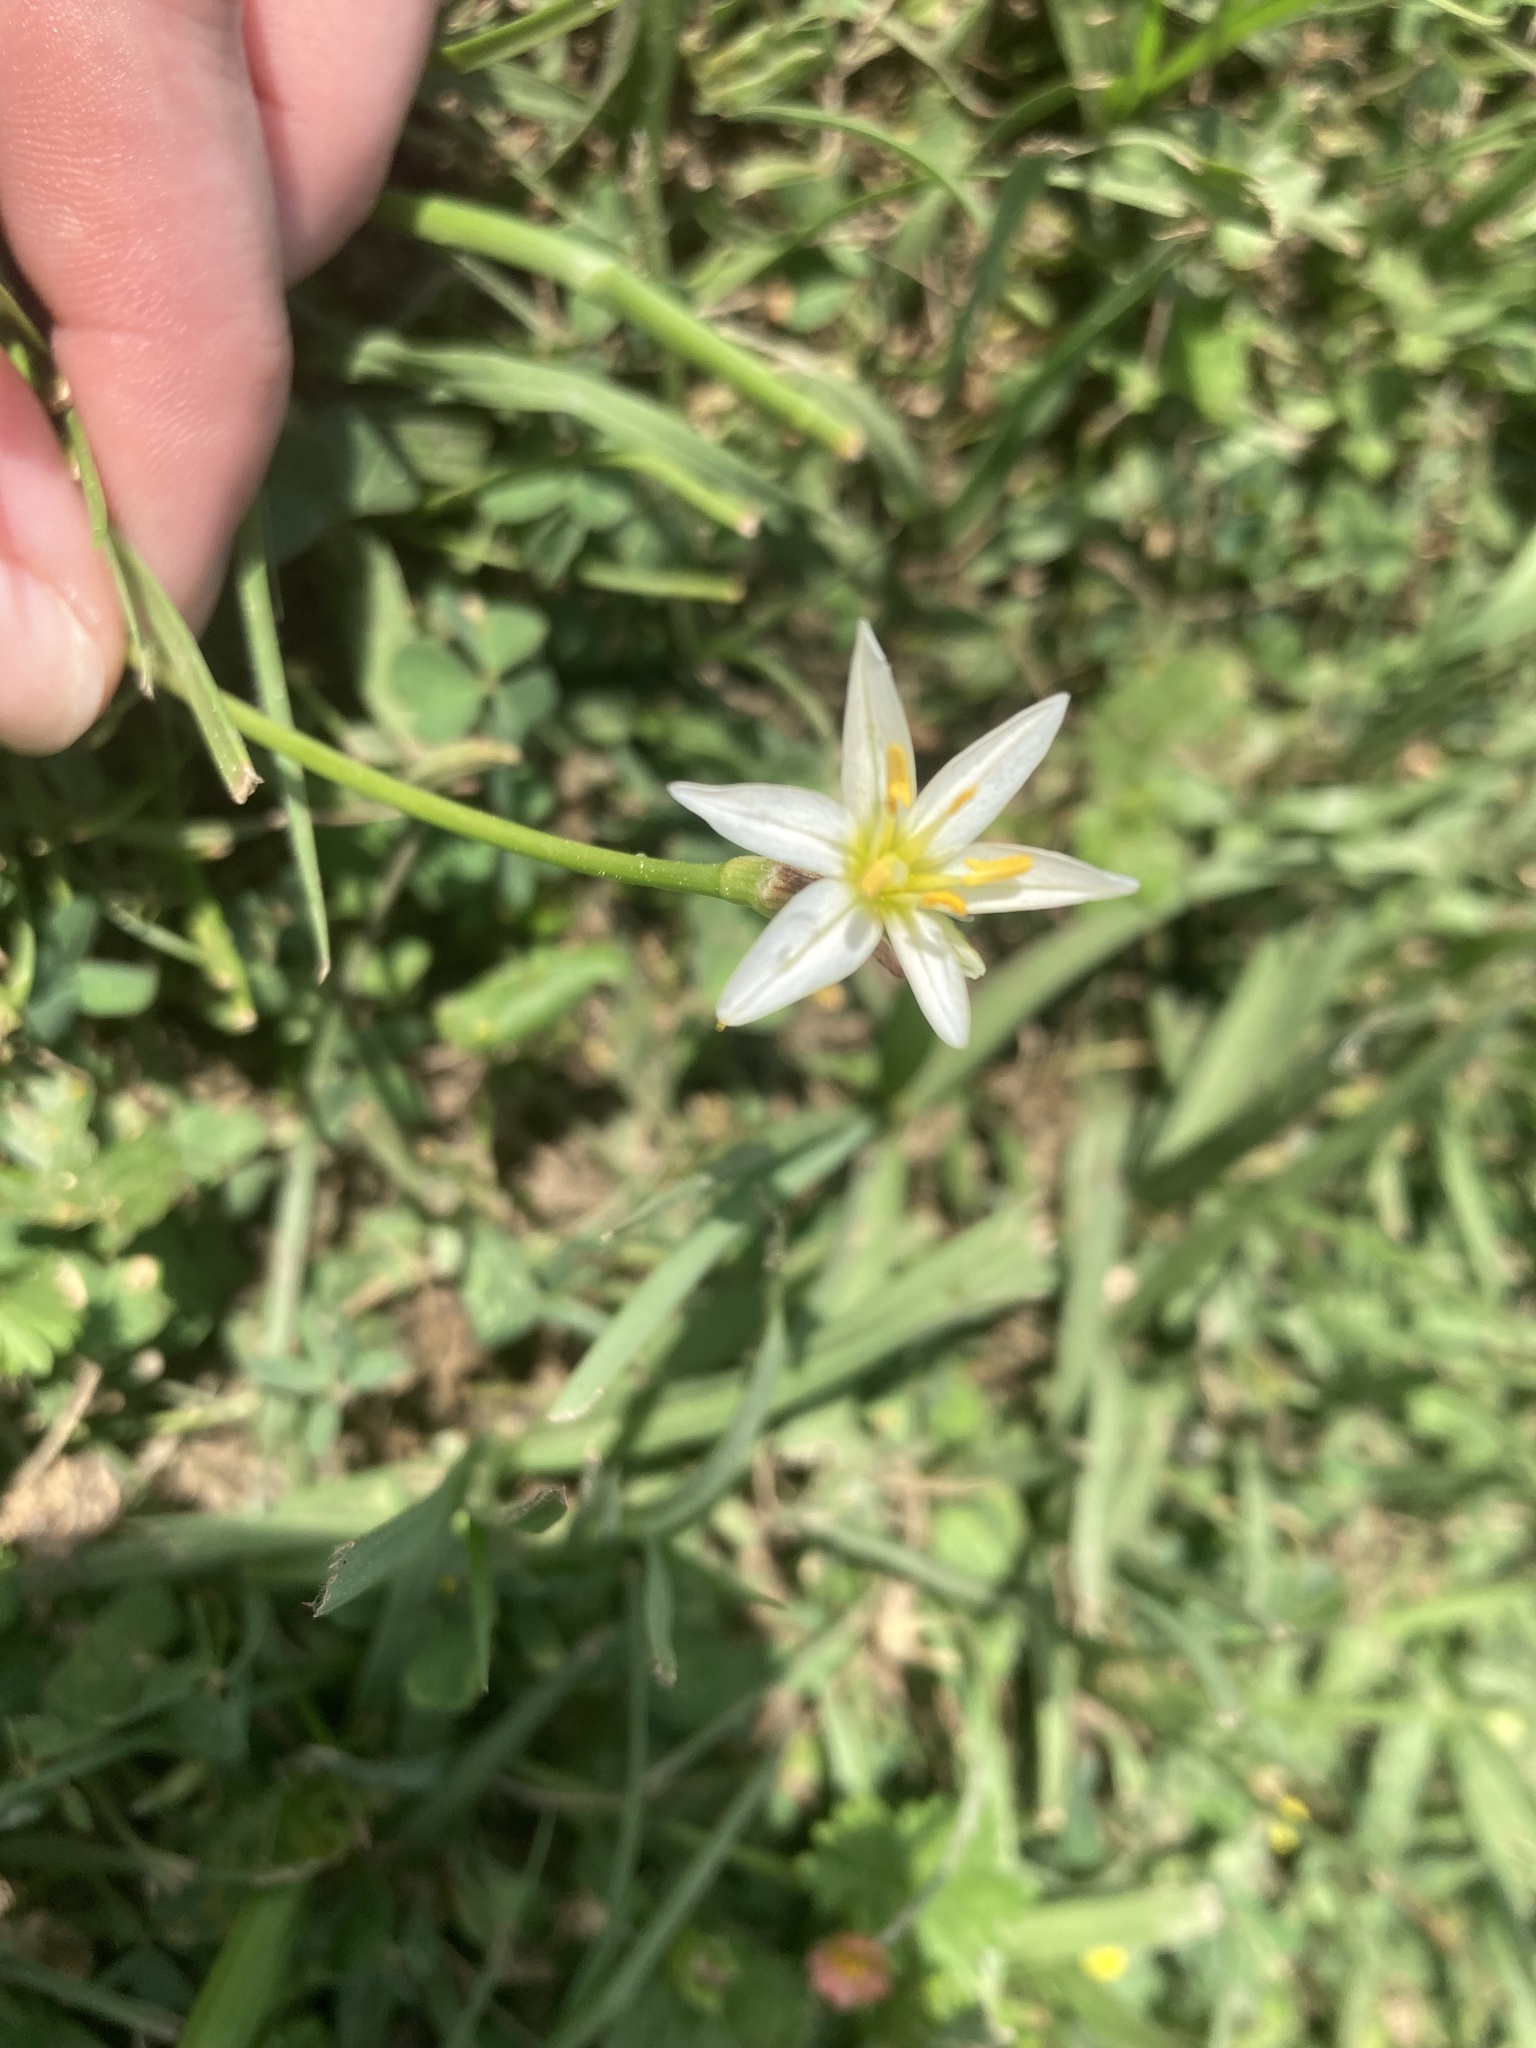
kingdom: Plantae
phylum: Tracheophyta
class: Liliopsida
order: Asparagales
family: Amaryllidaceae
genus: Nothoscordum
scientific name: Nothoscordum bivalve
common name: Crow-poison
